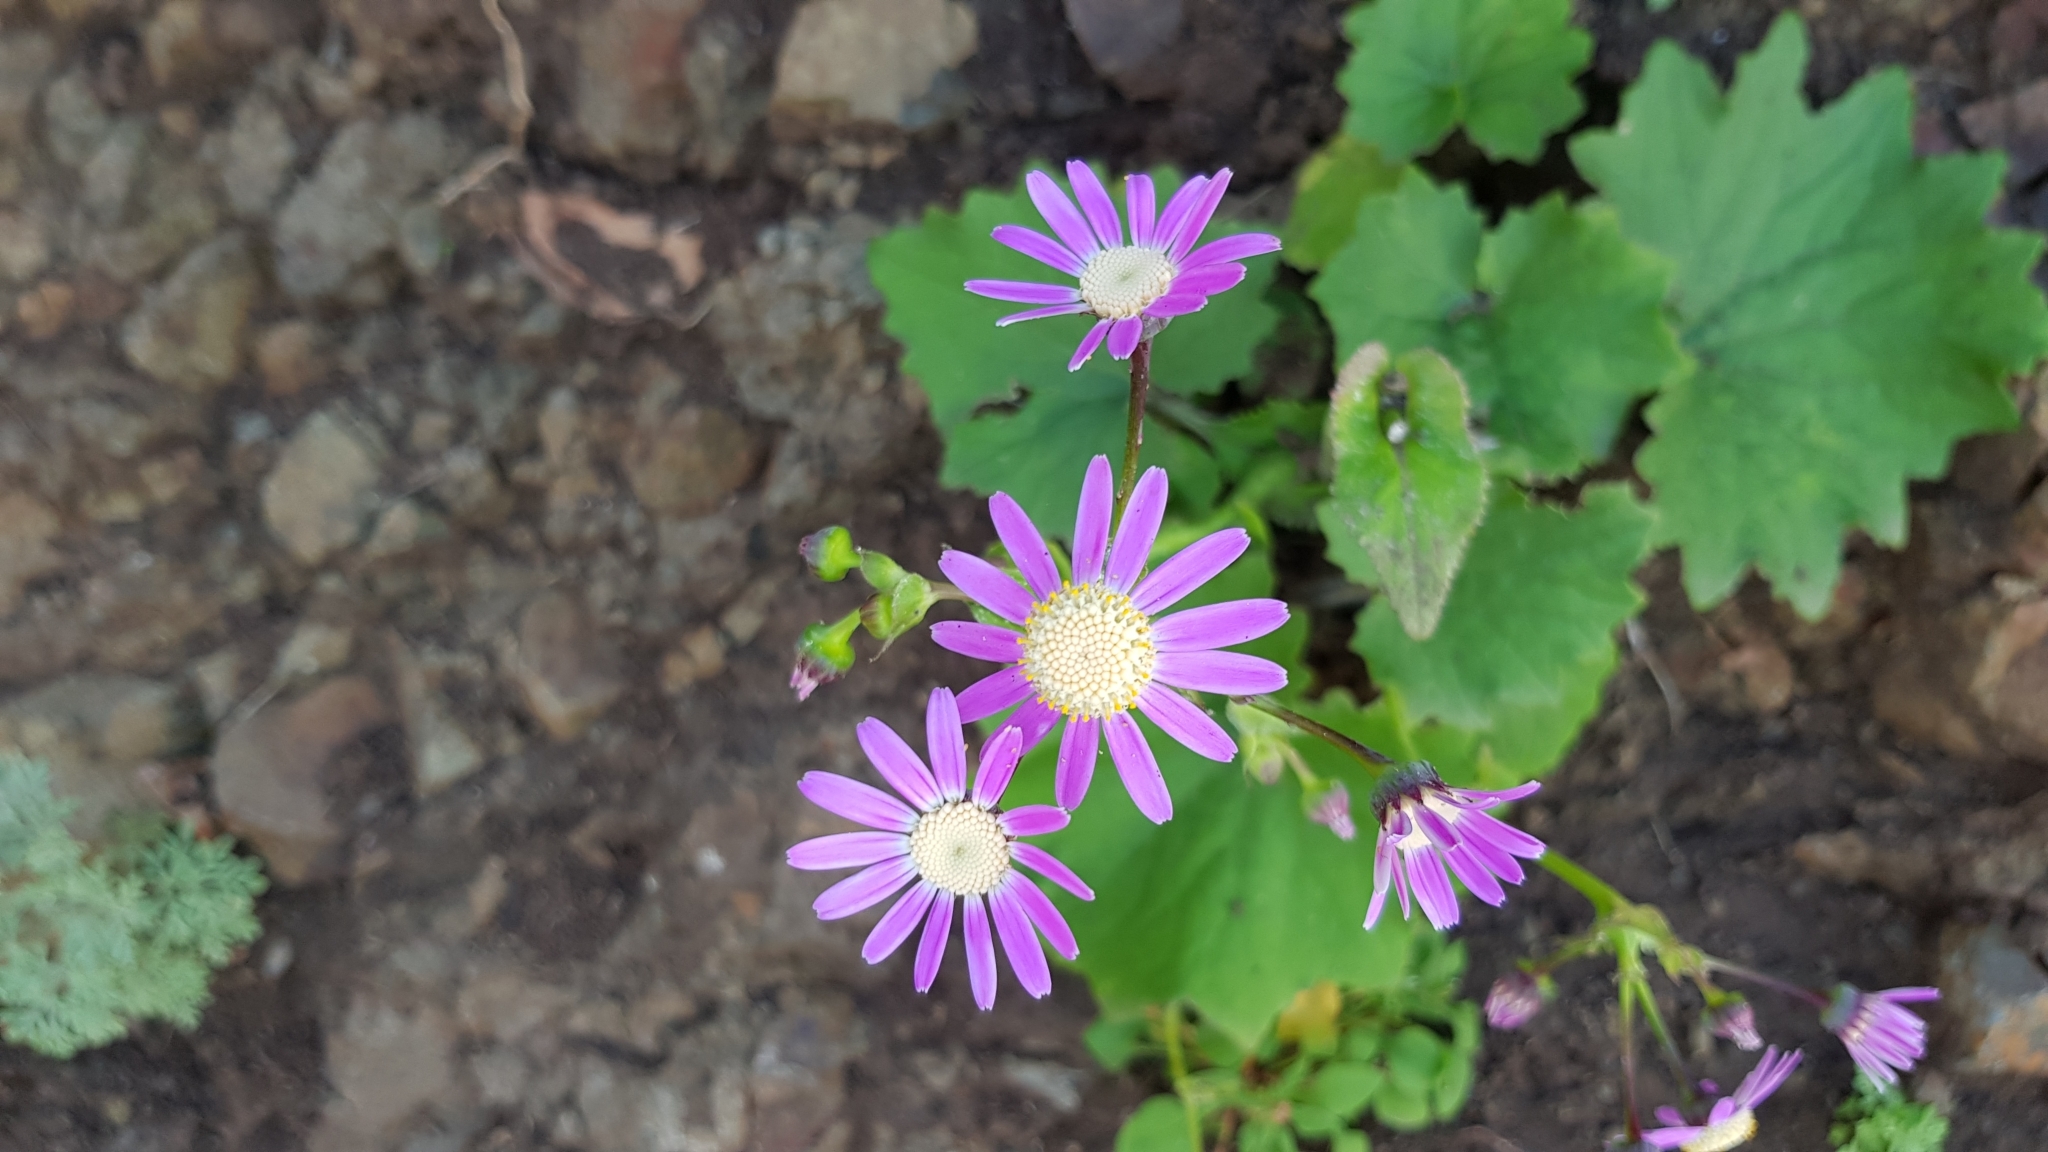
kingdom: Plantae
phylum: Tracheophyta
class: Magnoliopsida
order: Asterales
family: Asteraceae
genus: Pericallis
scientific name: Pericallis tussilaginis
